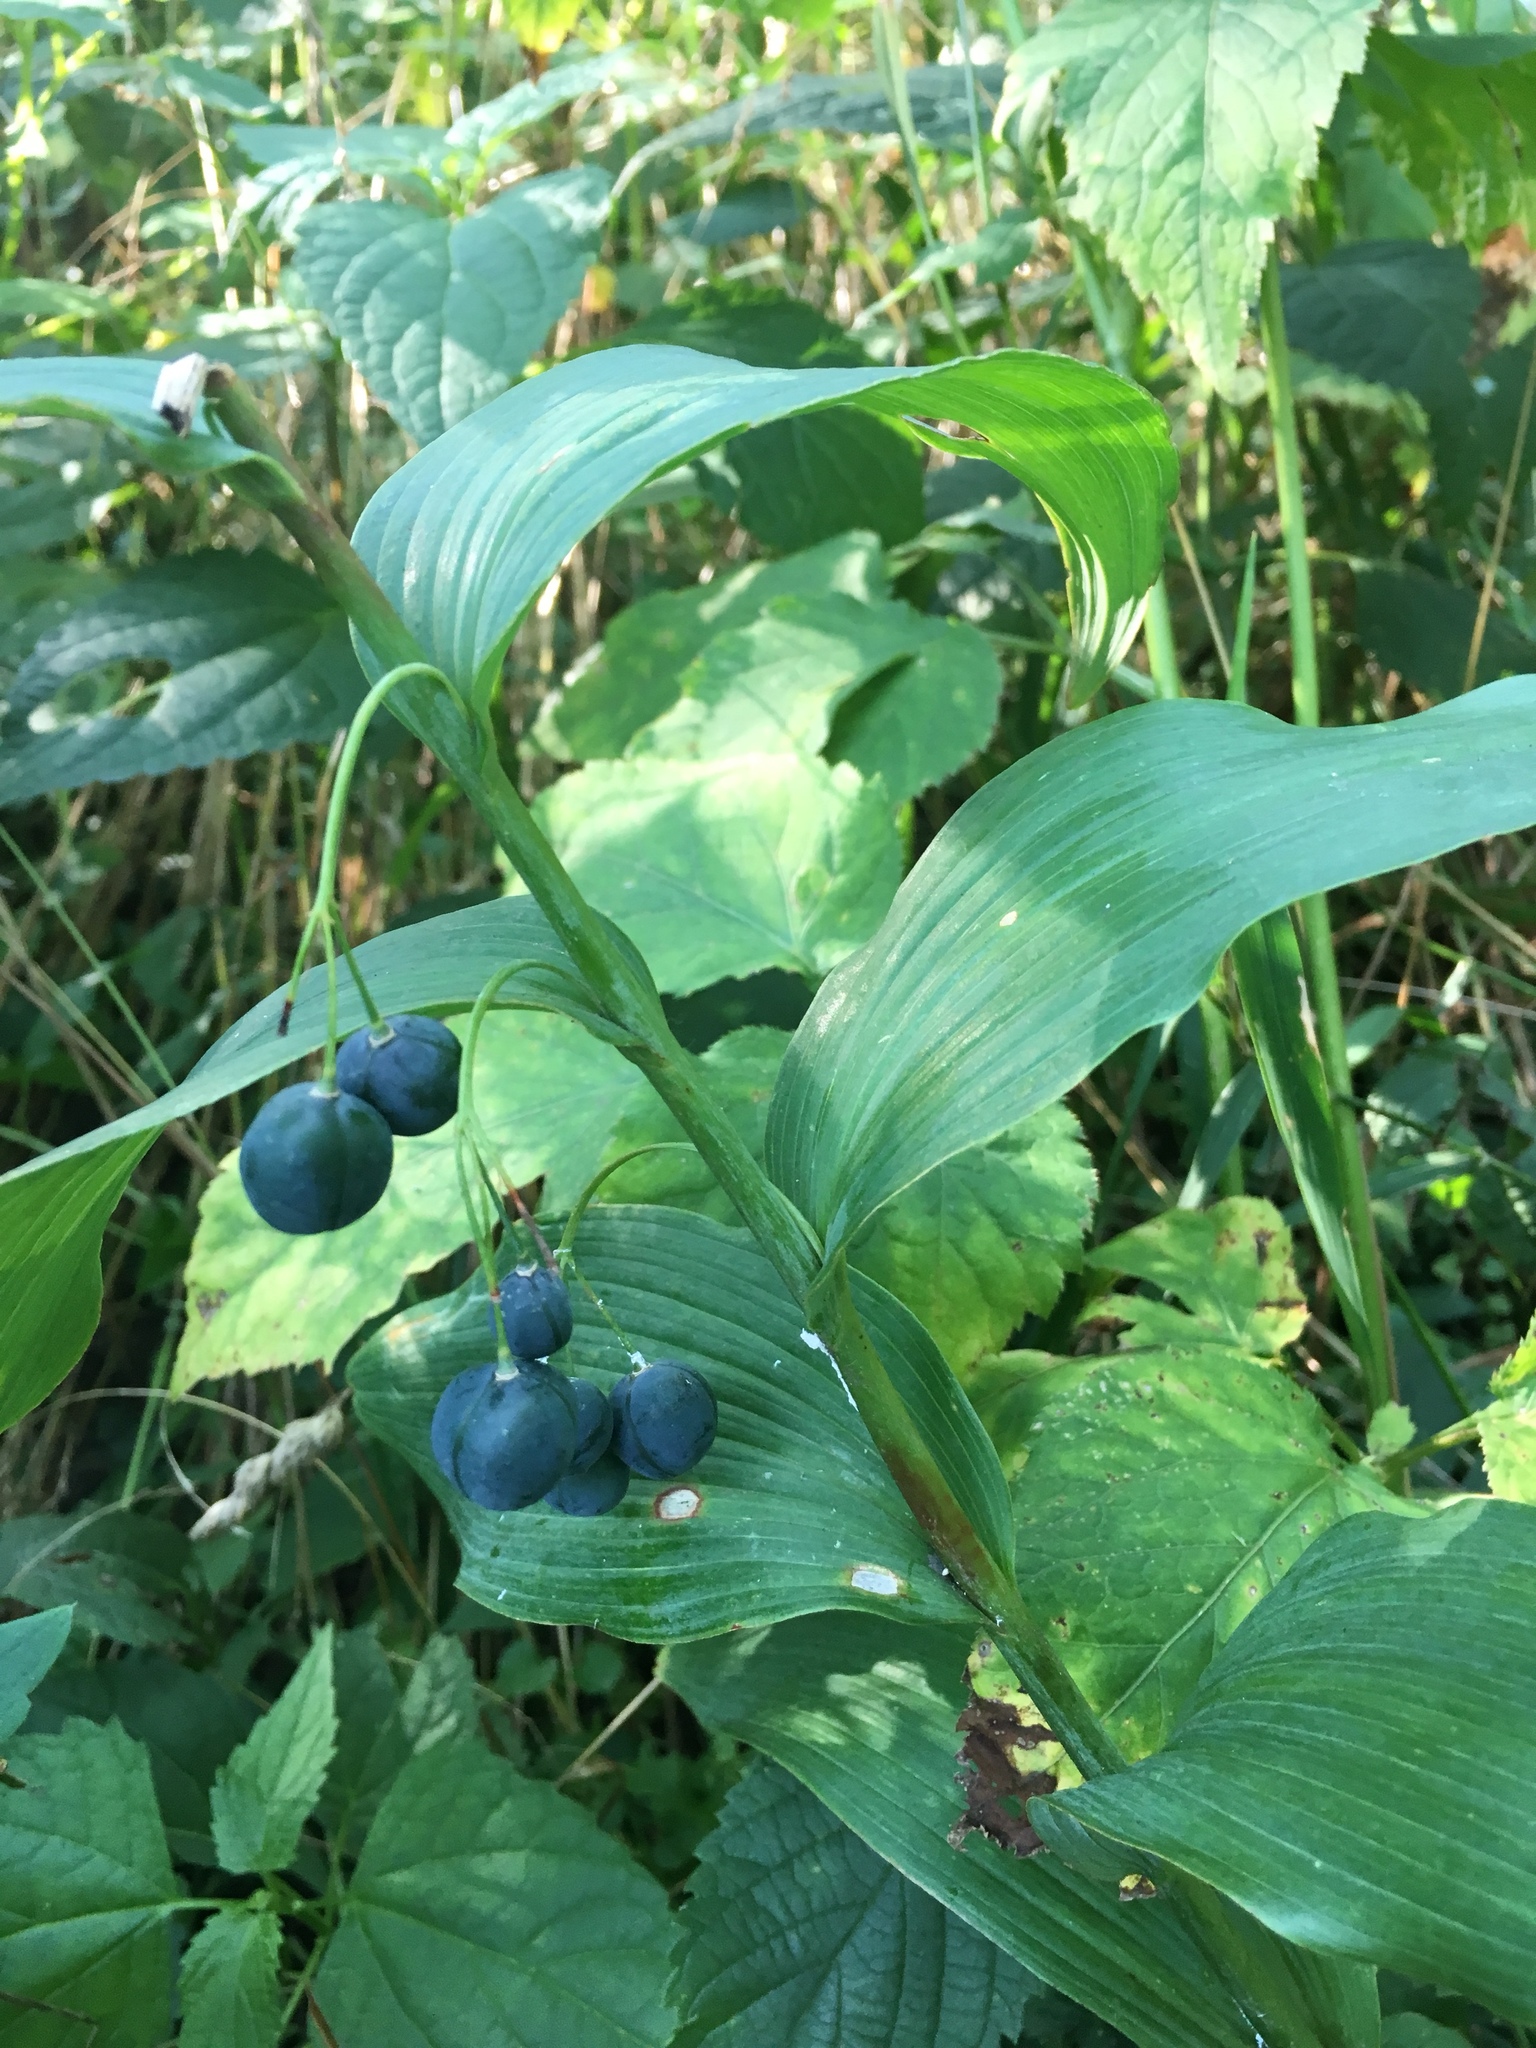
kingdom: Plantae
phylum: Tracheophyta
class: Liliopsida
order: Asparagales
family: Asparagaceae
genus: Polygonatum
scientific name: Polygonatum biflorum
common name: American solomon's-seal
